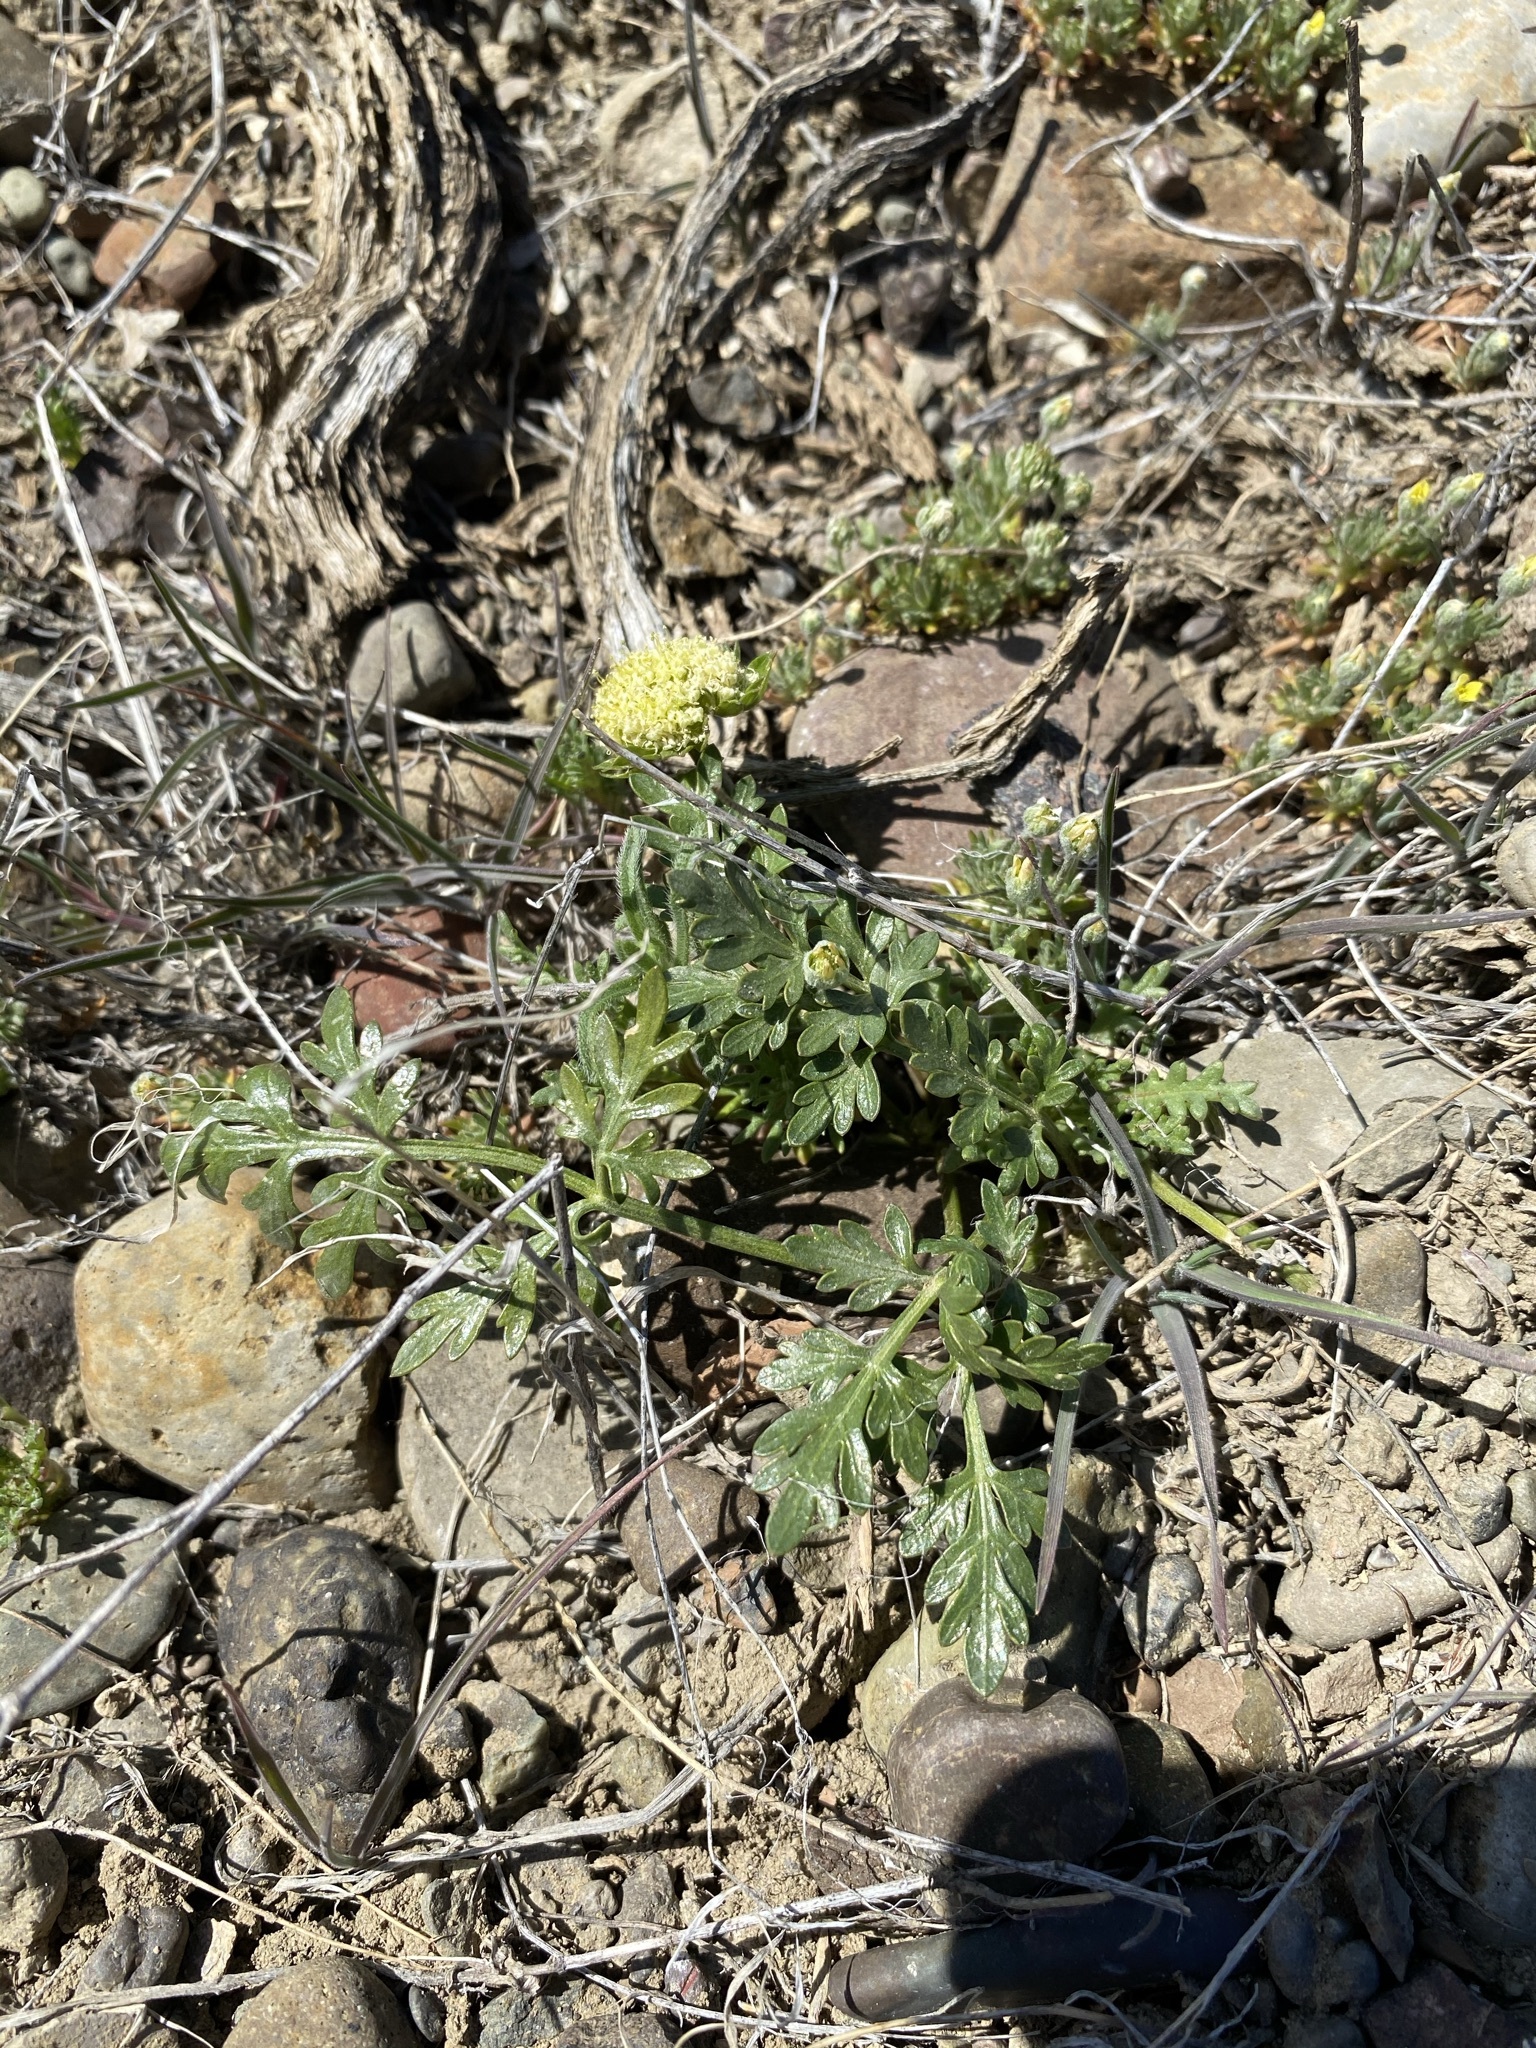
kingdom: Plantae
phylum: Tracheophyta
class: Magnoliopsida
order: Apiales
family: Apiaceae
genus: Cymopterus
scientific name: Cymopterus glomeratus
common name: Plains spring parsley
